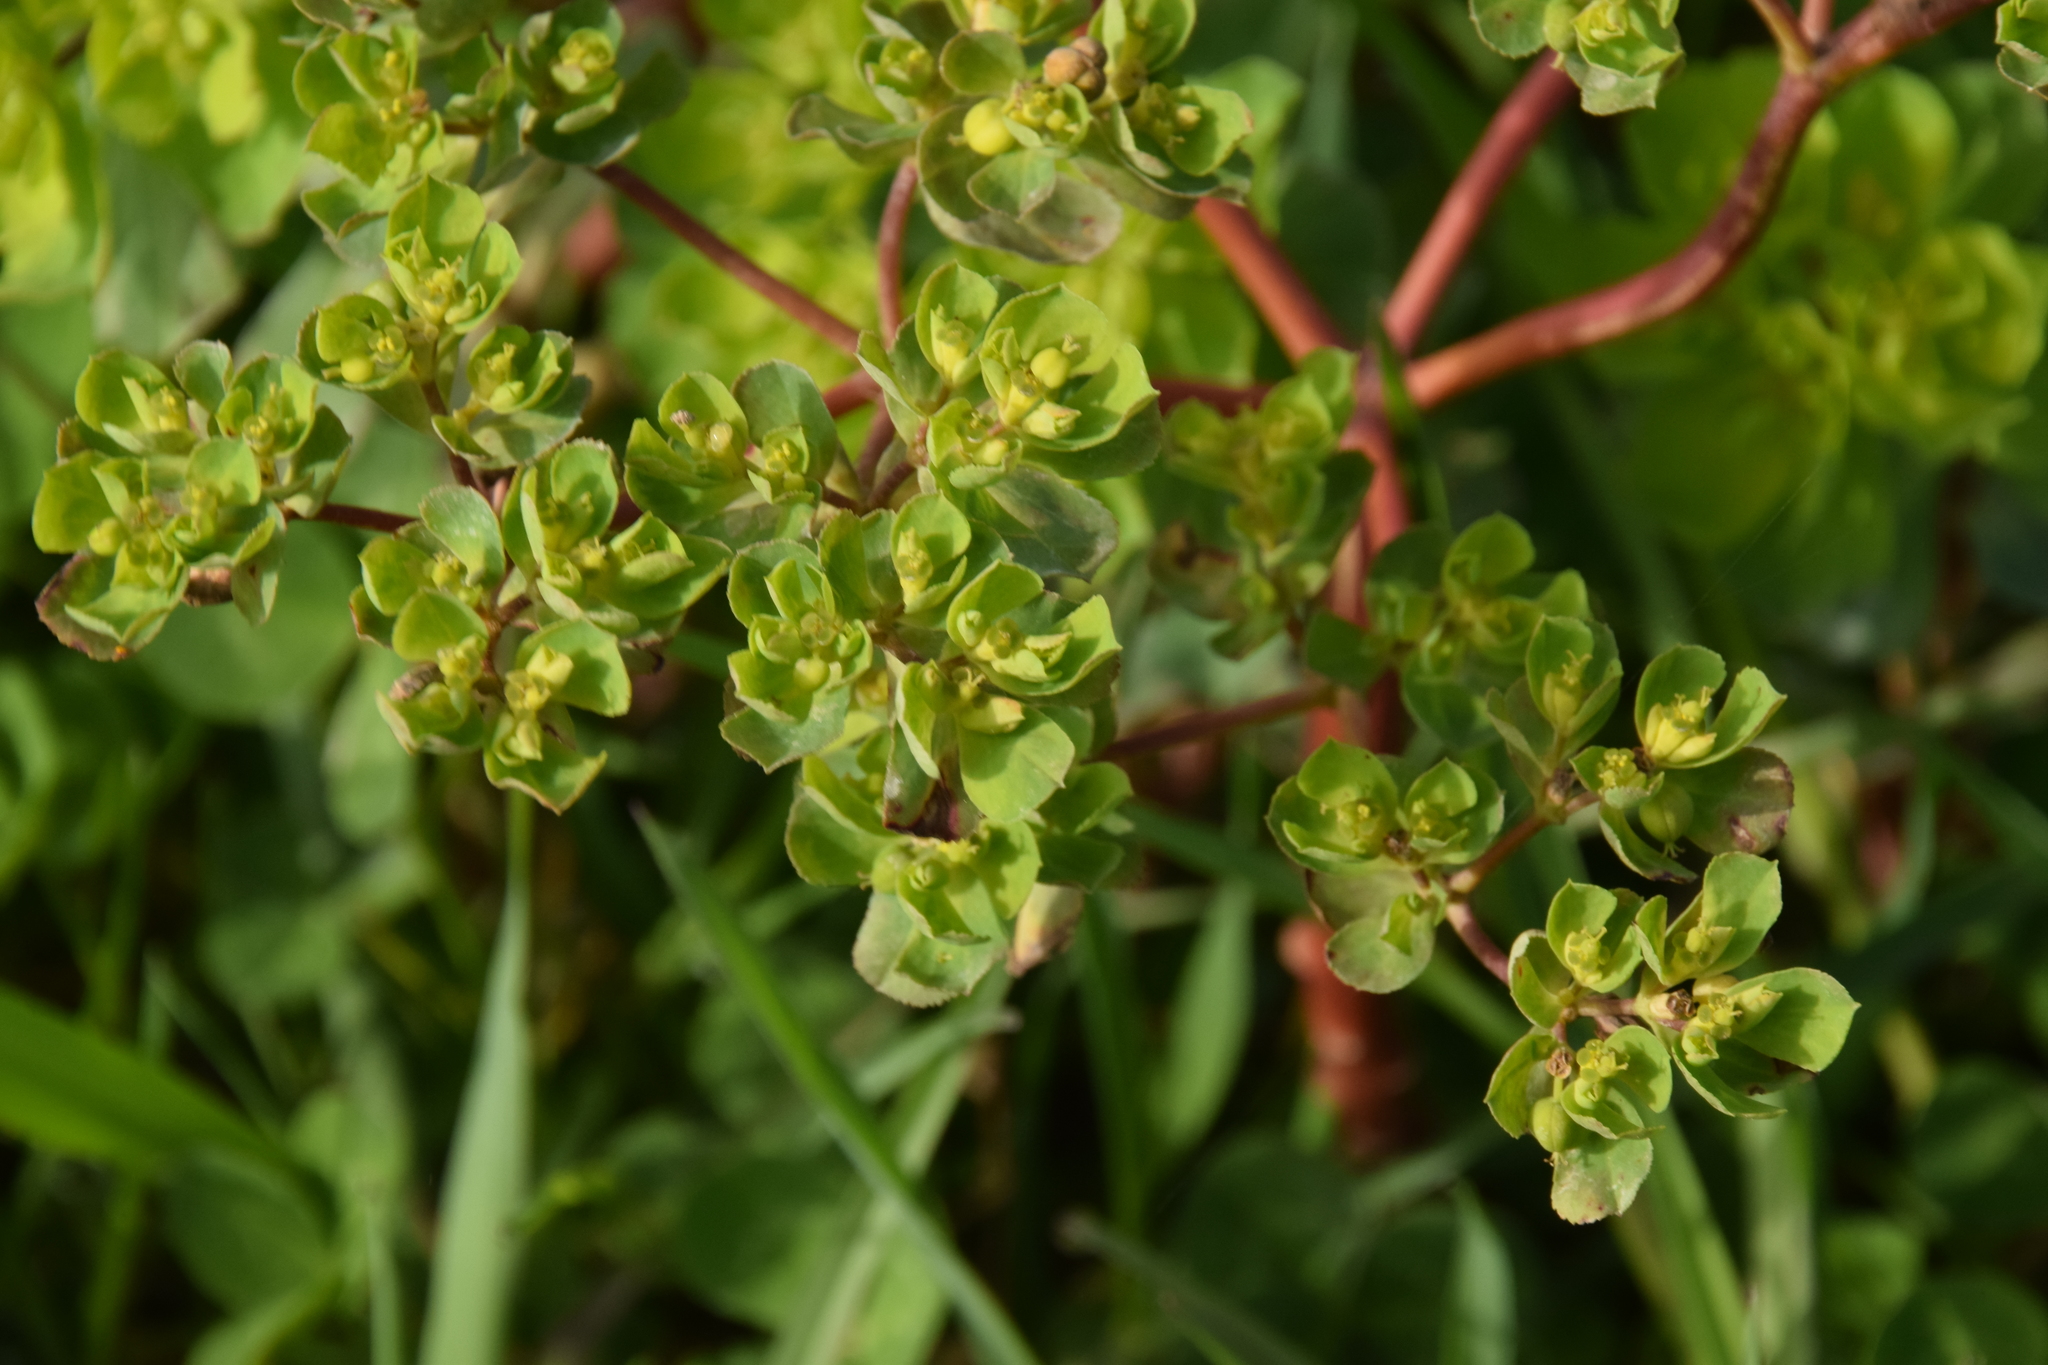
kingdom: Plantae
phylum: Tracheophyta
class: Magnoliopsida
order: Malpighiales
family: Euphorbiaceae
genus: Euphorbia
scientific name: Euphorbia helioscopia
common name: Sun spurge
